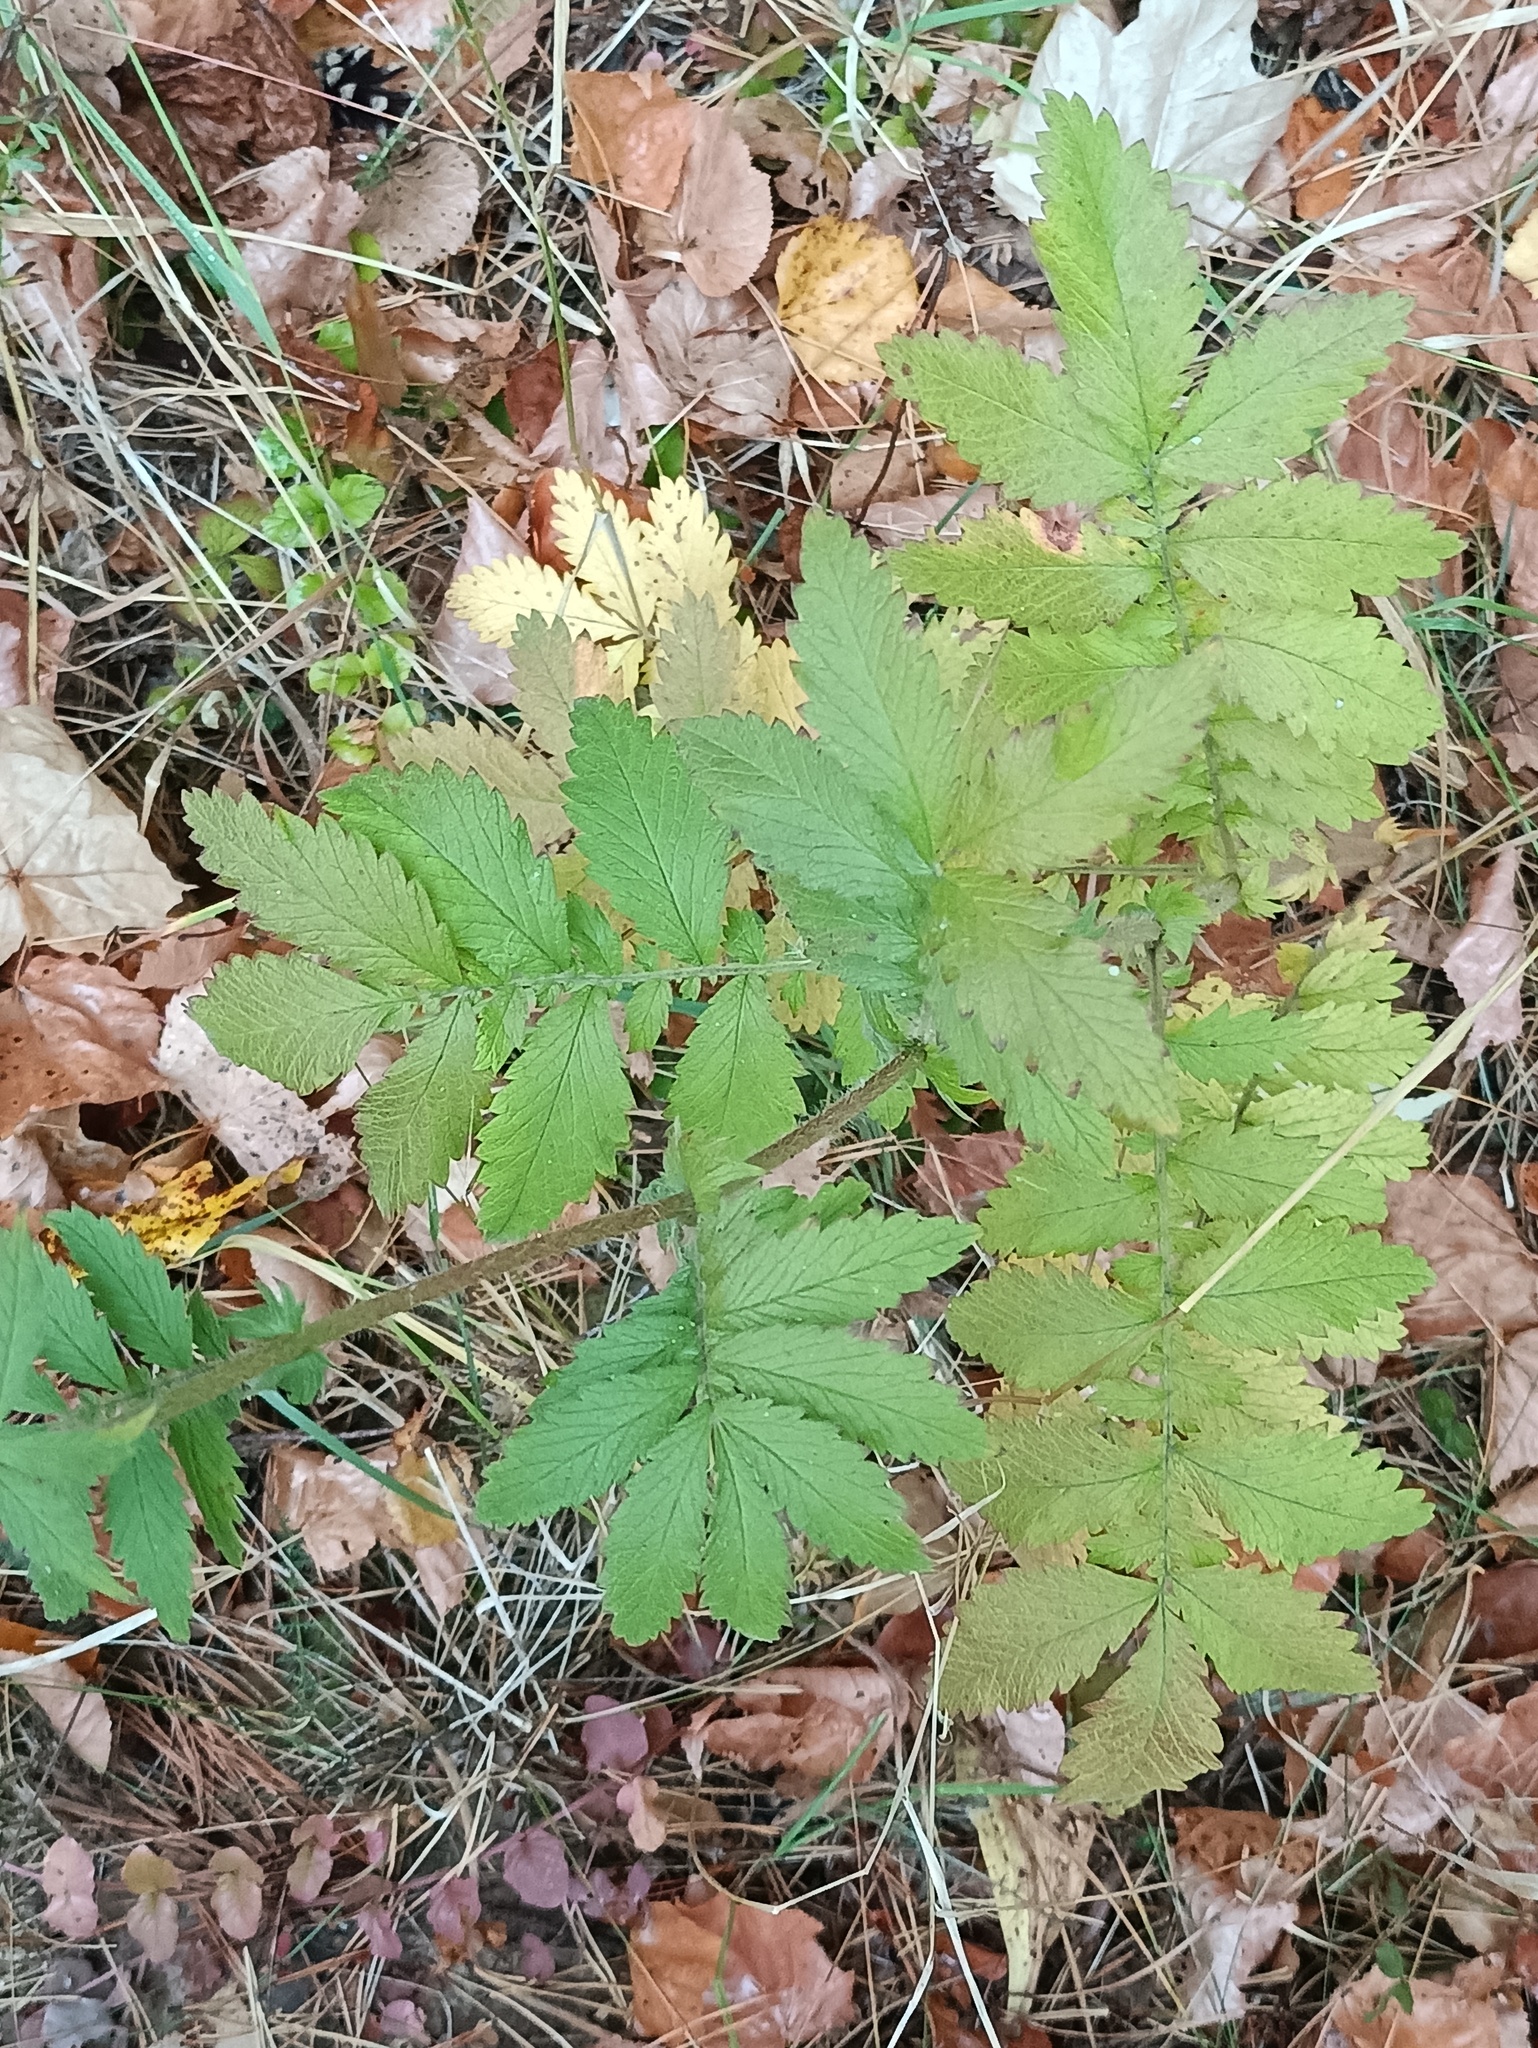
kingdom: Plantae
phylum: Tracheophyta
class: Magnoliopsida
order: Rosales
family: Rosaceae
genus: Agrimonia
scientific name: Agrimonia eupatoria
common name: Agrimony
